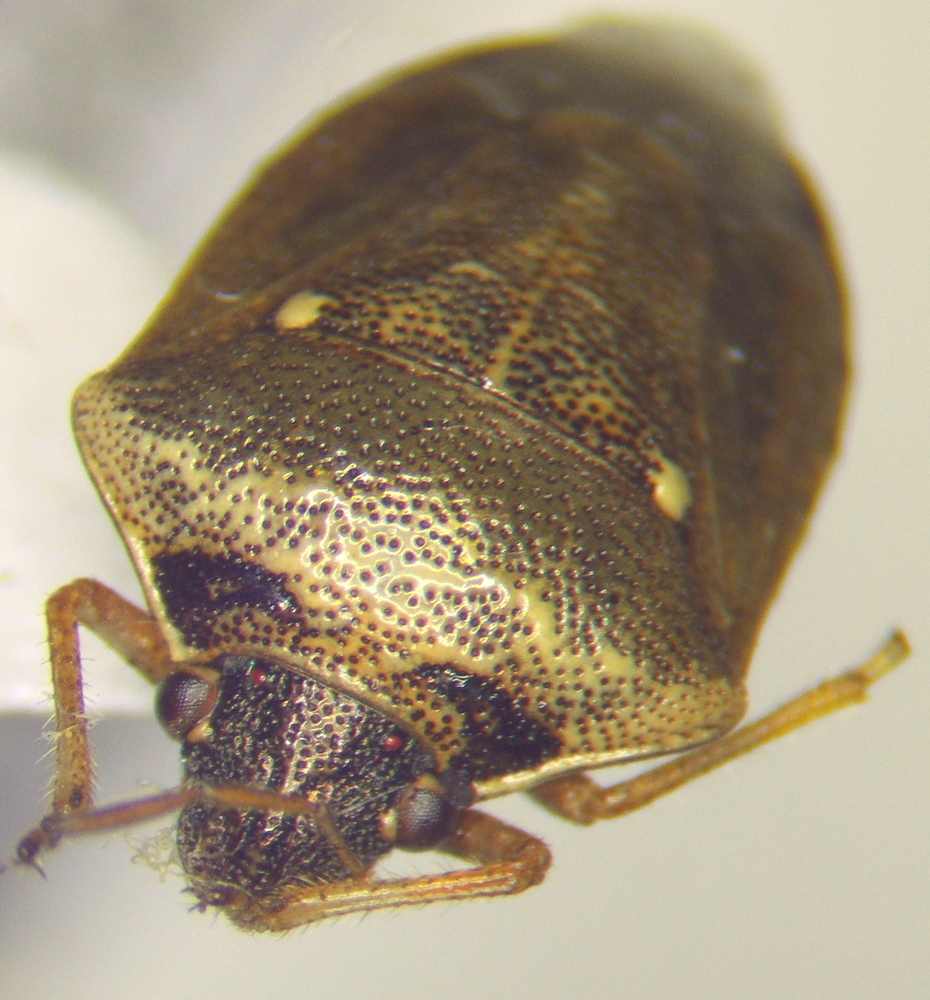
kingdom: Animalia
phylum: Arthropoda
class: Insecta
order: Hemiptera
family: Pentatomidae
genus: Eysarcoris
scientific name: Eysarcoris ventralis
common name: White-spotted stink bug
